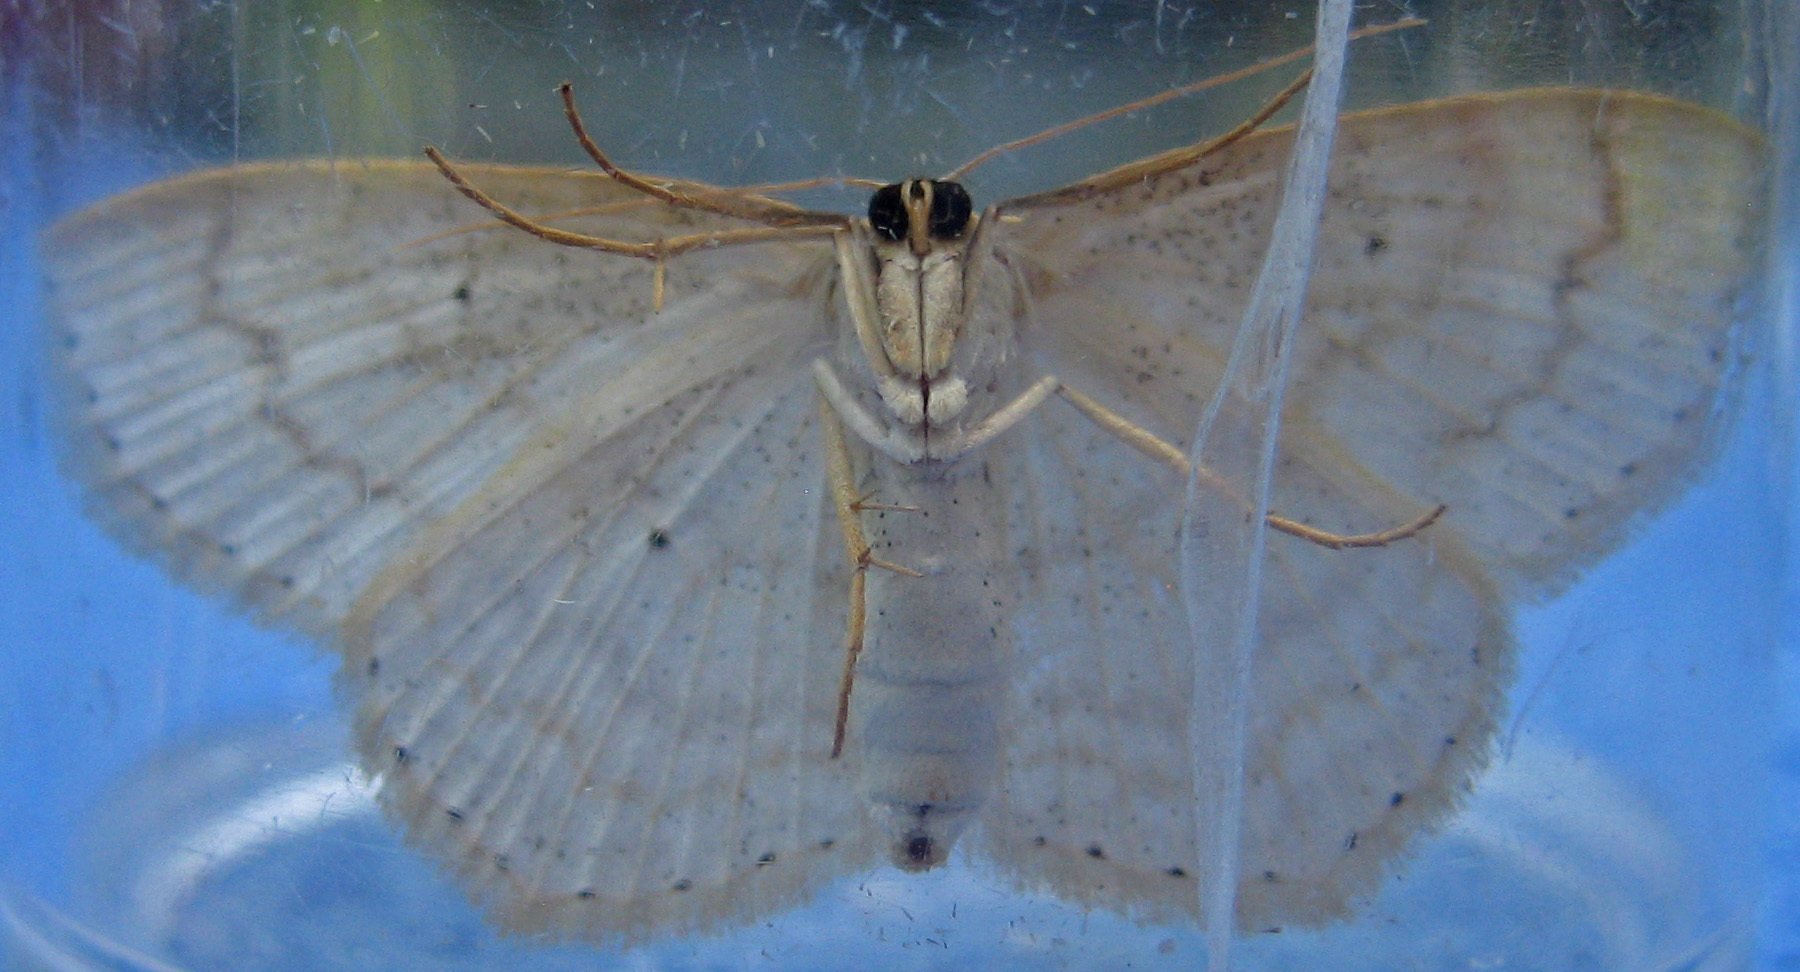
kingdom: Animalia
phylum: Arthropoda
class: Insecta
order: Lepidoptera
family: Geometridae
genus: Scopula
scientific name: Scopula limboundata
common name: Large lace border
